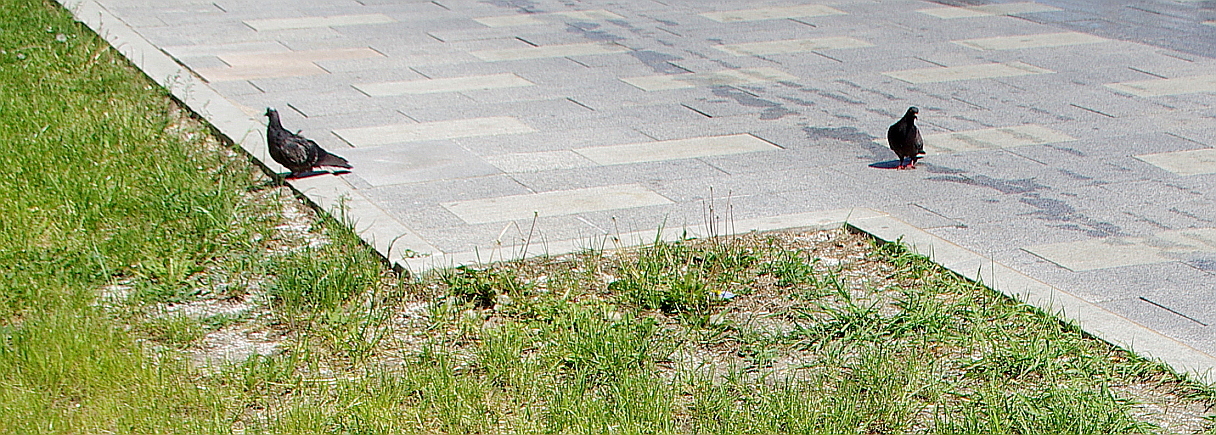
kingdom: Animalia
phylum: Chordata
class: Aves
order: Columbiformes
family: Columbidae
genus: Columba
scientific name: Columba livia
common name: Rock pigeon
